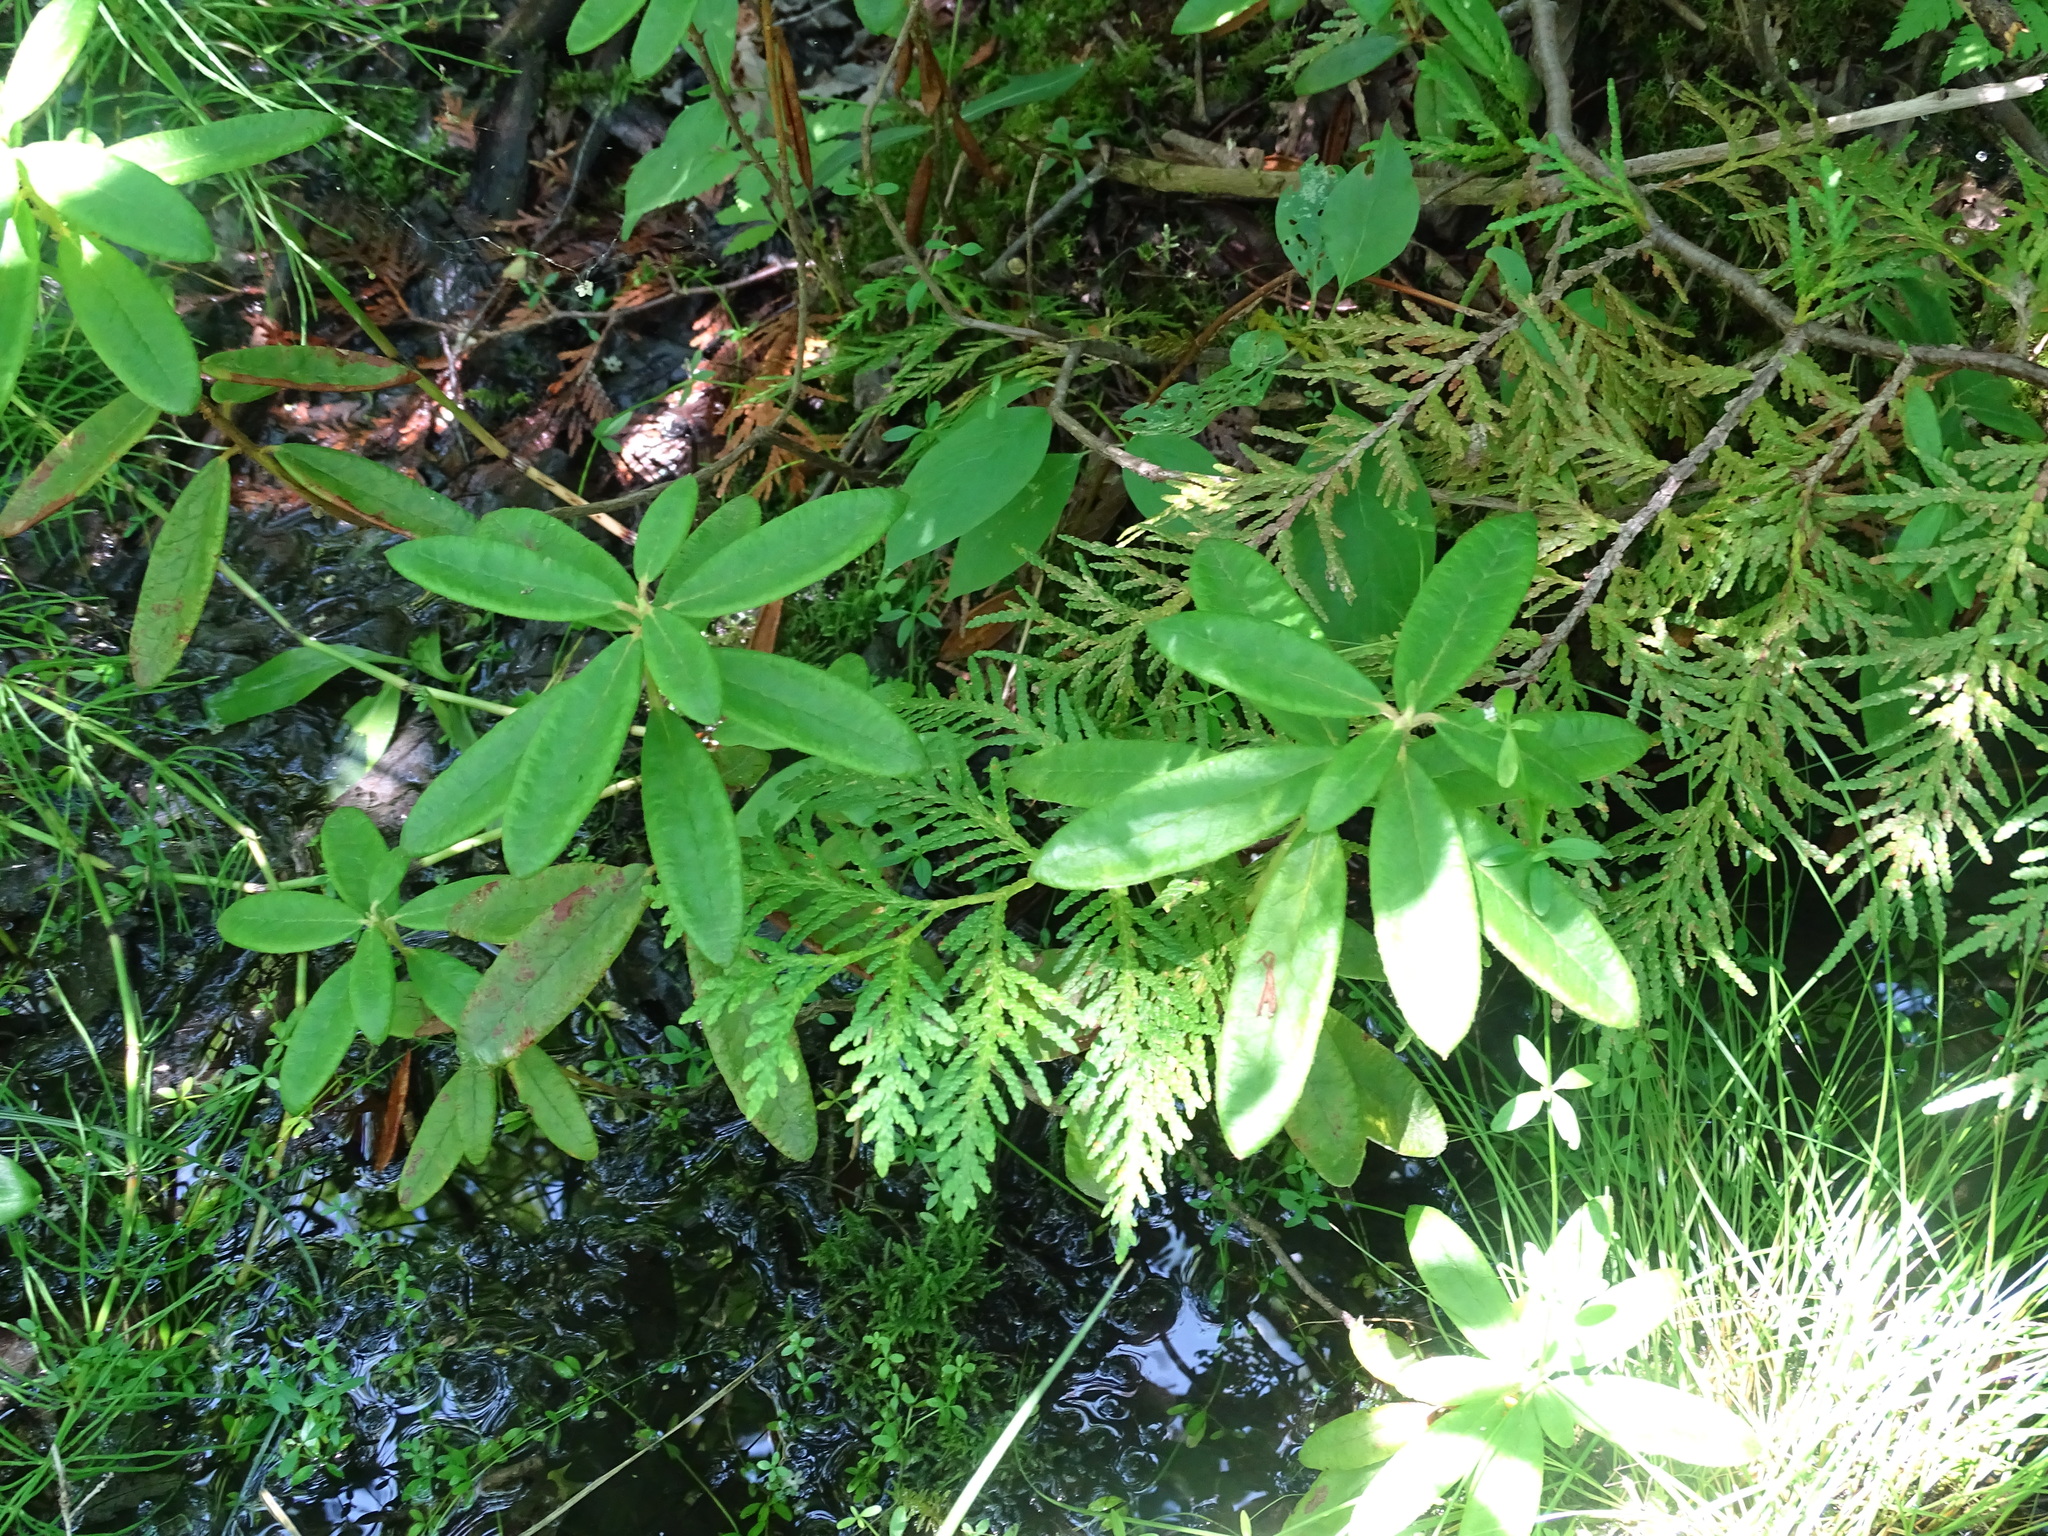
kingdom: Plantae
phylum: Tracheophyta
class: Magnoliopsida
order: Ericales
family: Ericaceae
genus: Rhododendron
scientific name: Rhododendron groenlandicum
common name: Bog labrador tea
